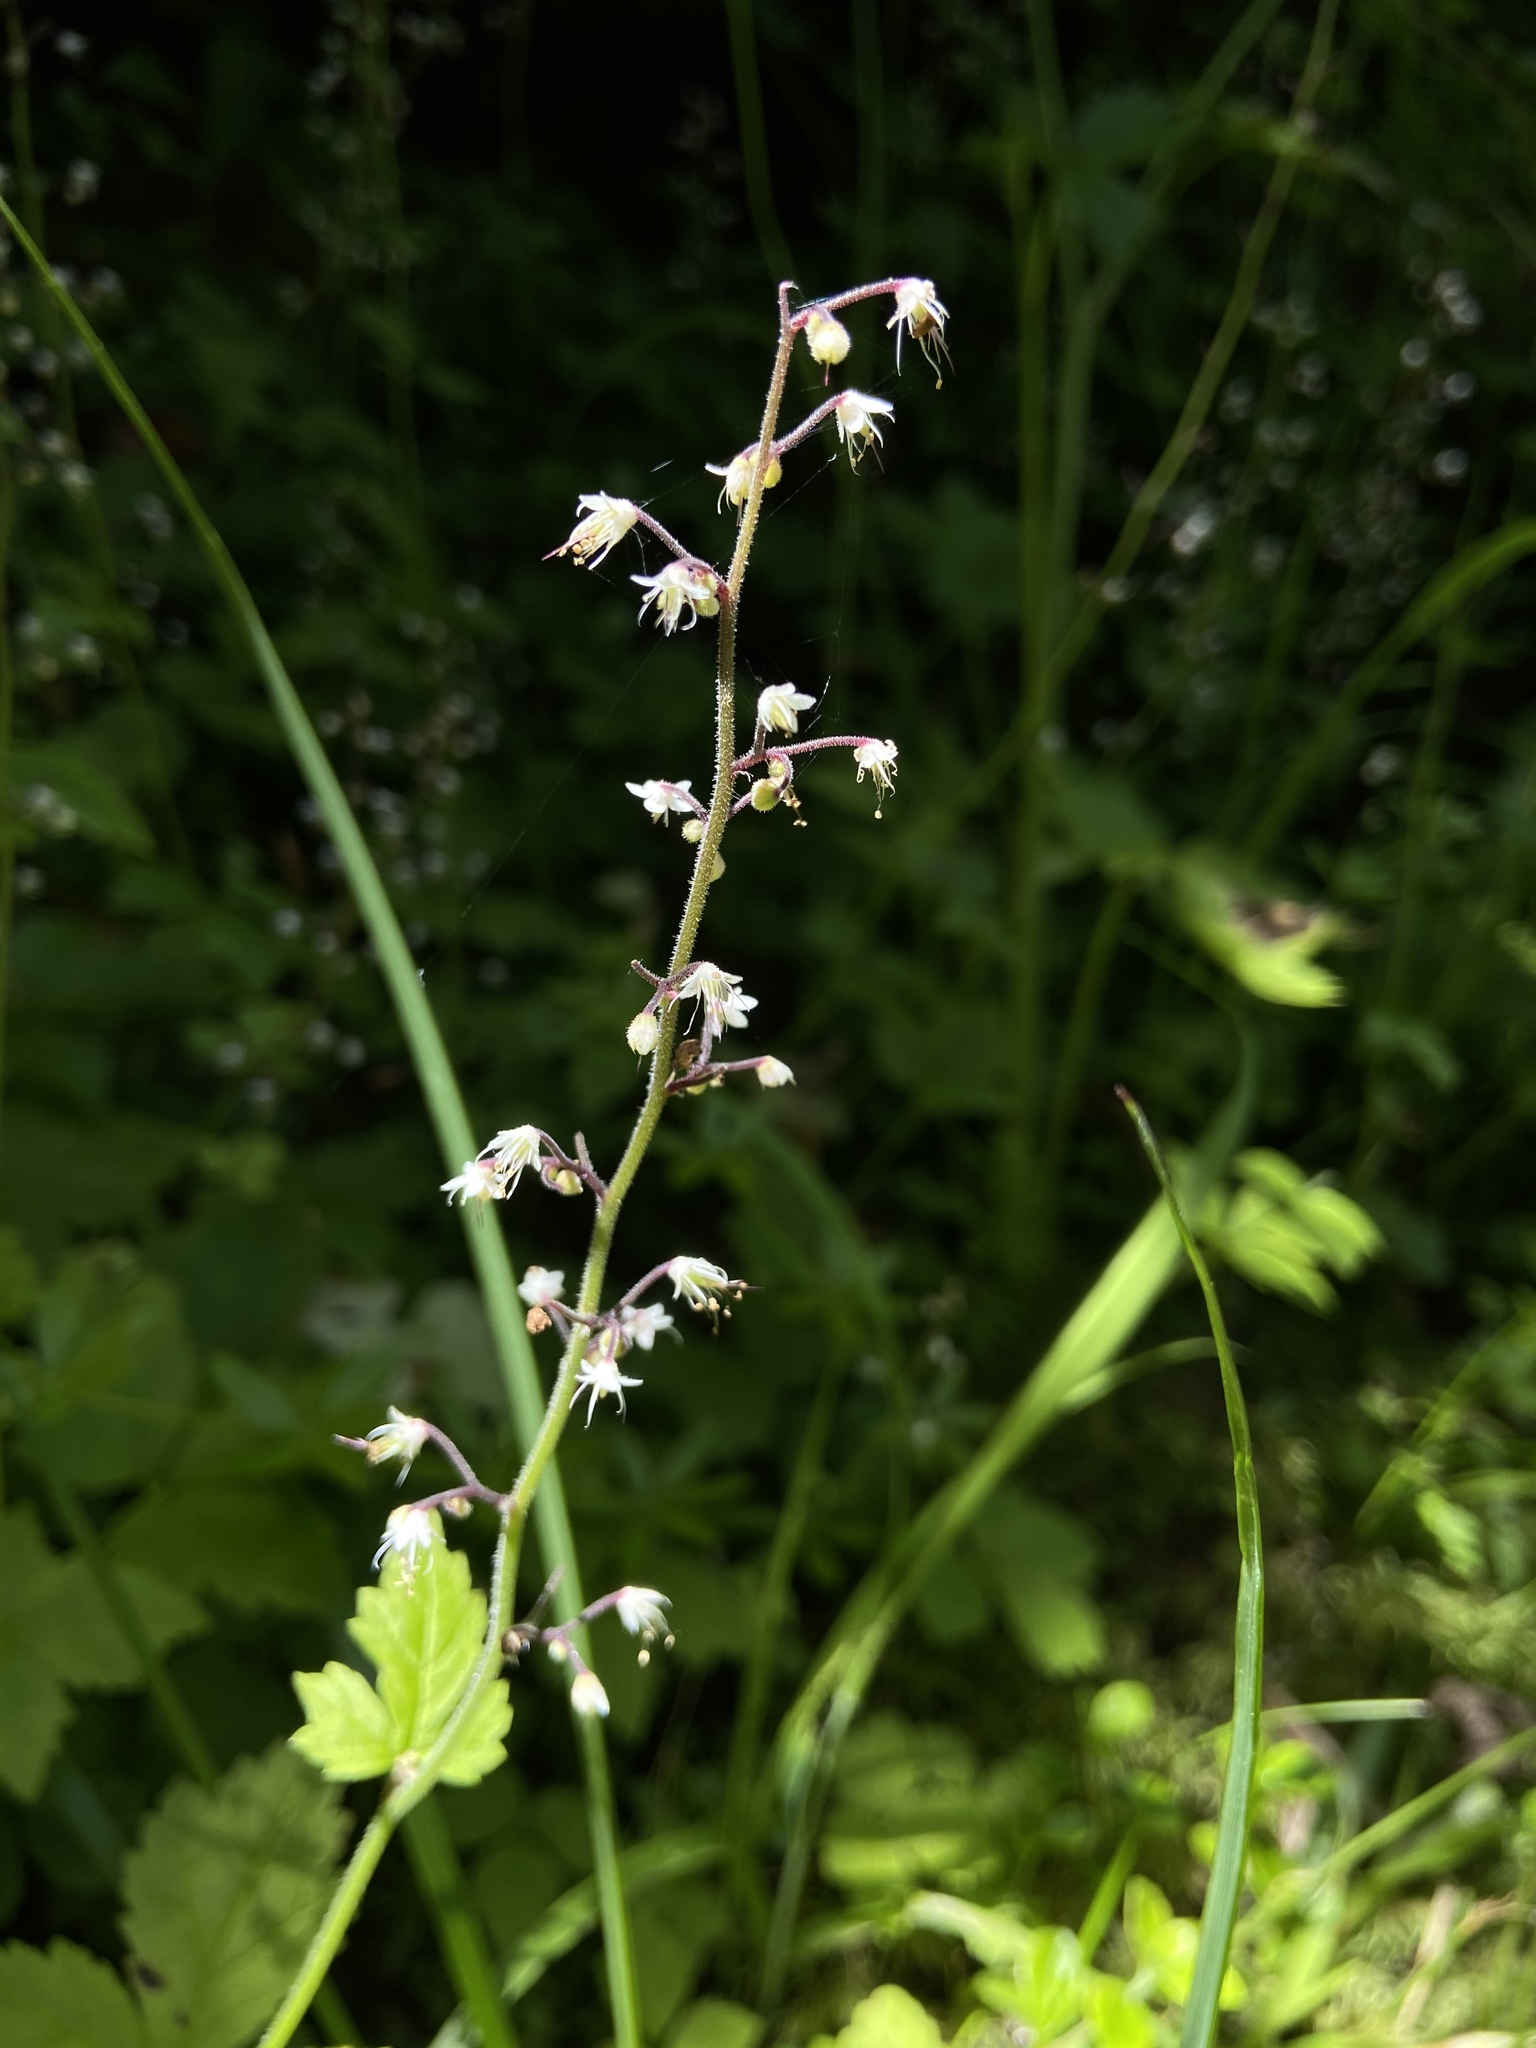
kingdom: Plantae
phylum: Tracheophyta
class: Magnoliopsida
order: Saxifragales
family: Saxifragaceae
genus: Tiarella
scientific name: Tiarella trifoliata
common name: Sugar-scoop
